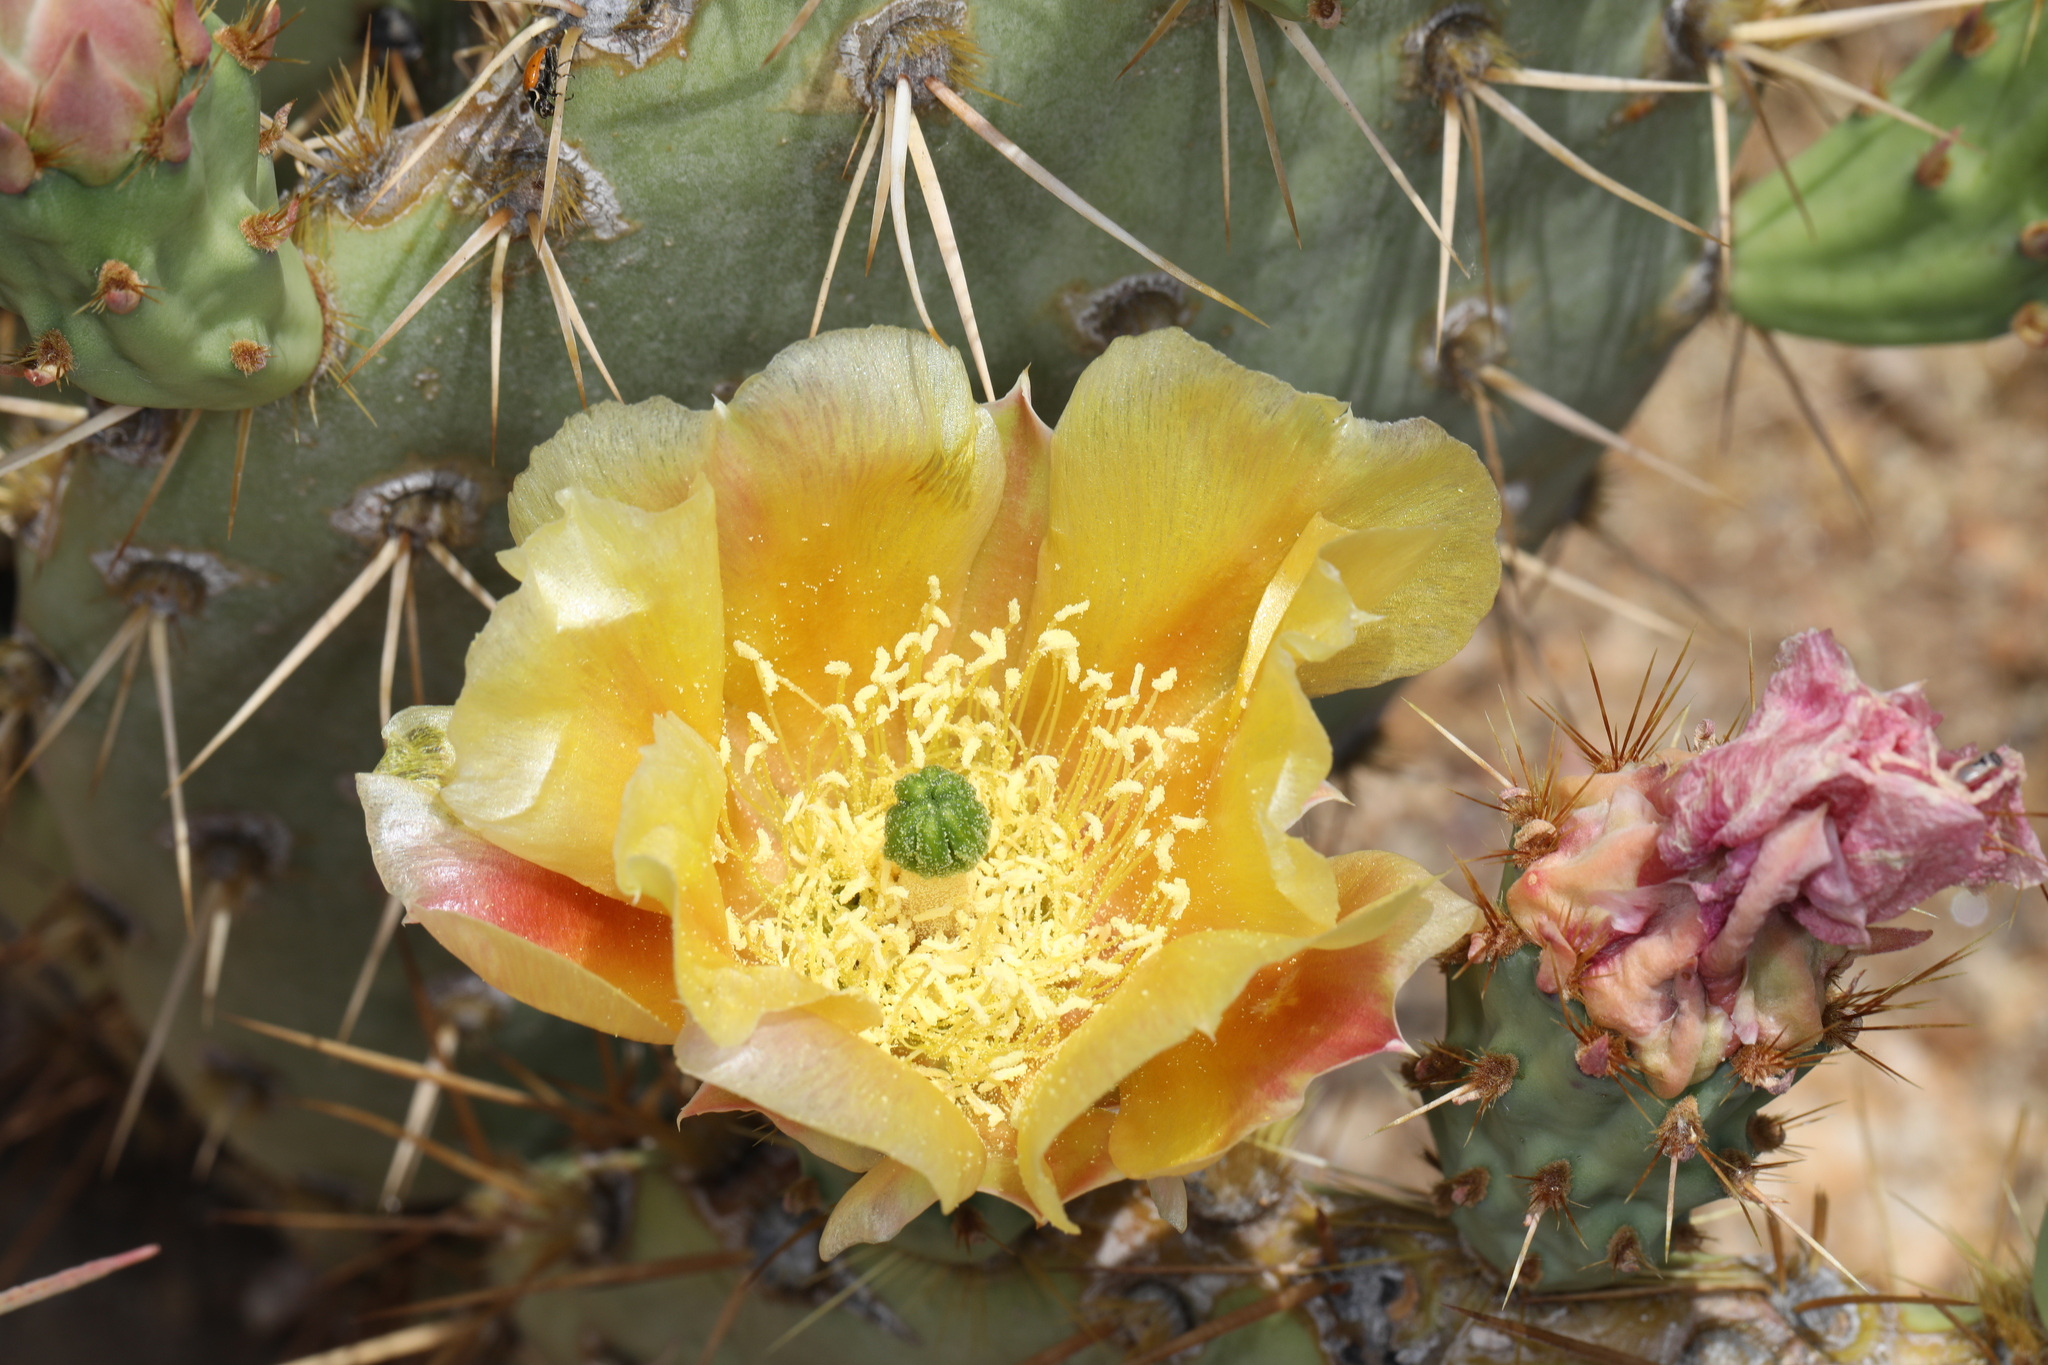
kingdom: Plantae
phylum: Tracheophyta
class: Magnoliopsida
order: Caryophyllales
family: Cactaceae
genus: Opuntia
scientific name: Opuntia engelmannii
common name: Cactus-apple
